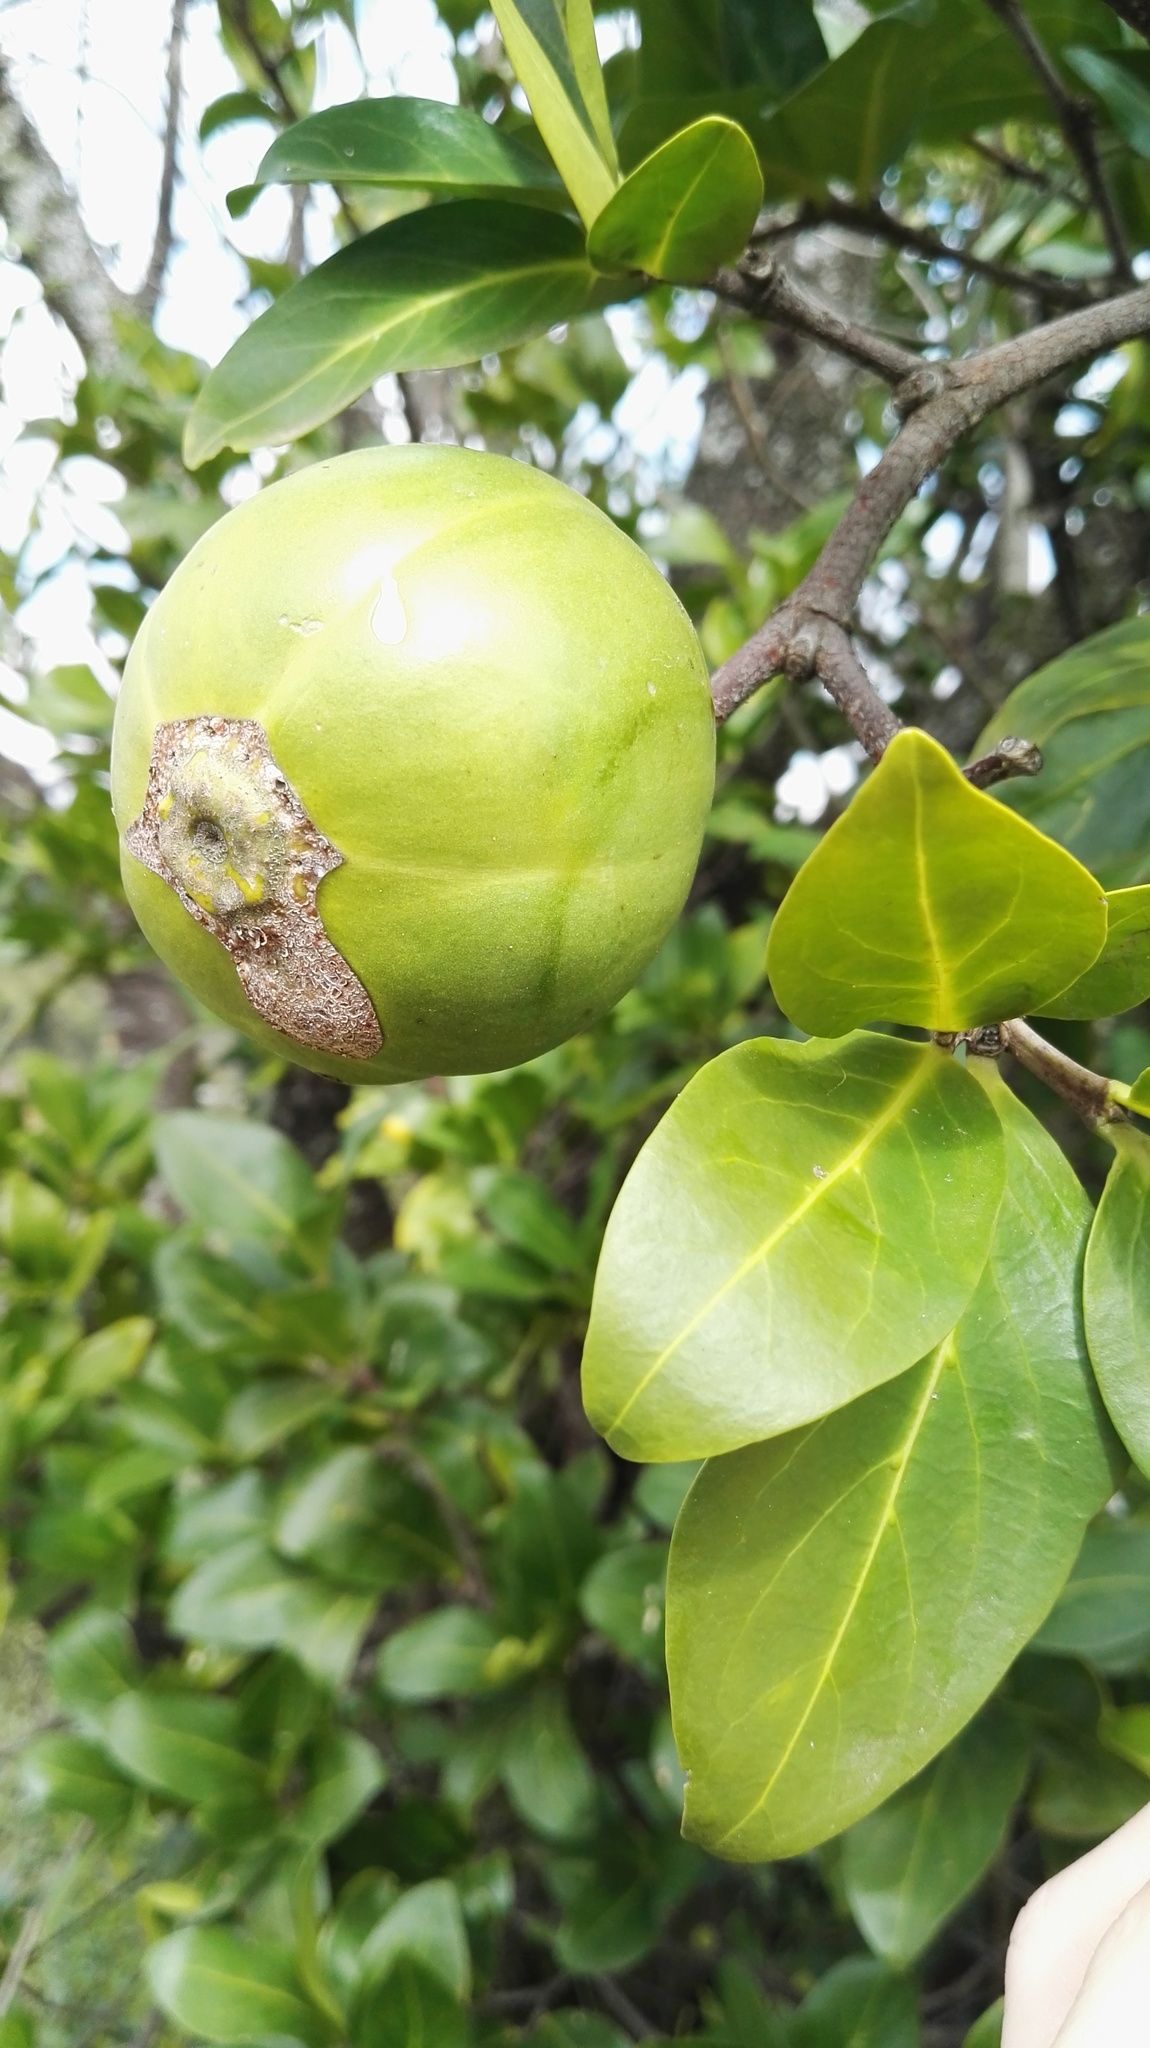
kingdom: Plantae
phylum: Tracheophyta
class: Magnoliopsida
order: Gentianales
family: Rubiaceae
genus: Rothmannia
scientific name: Rothmannia capensis
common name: Cape gardenia
